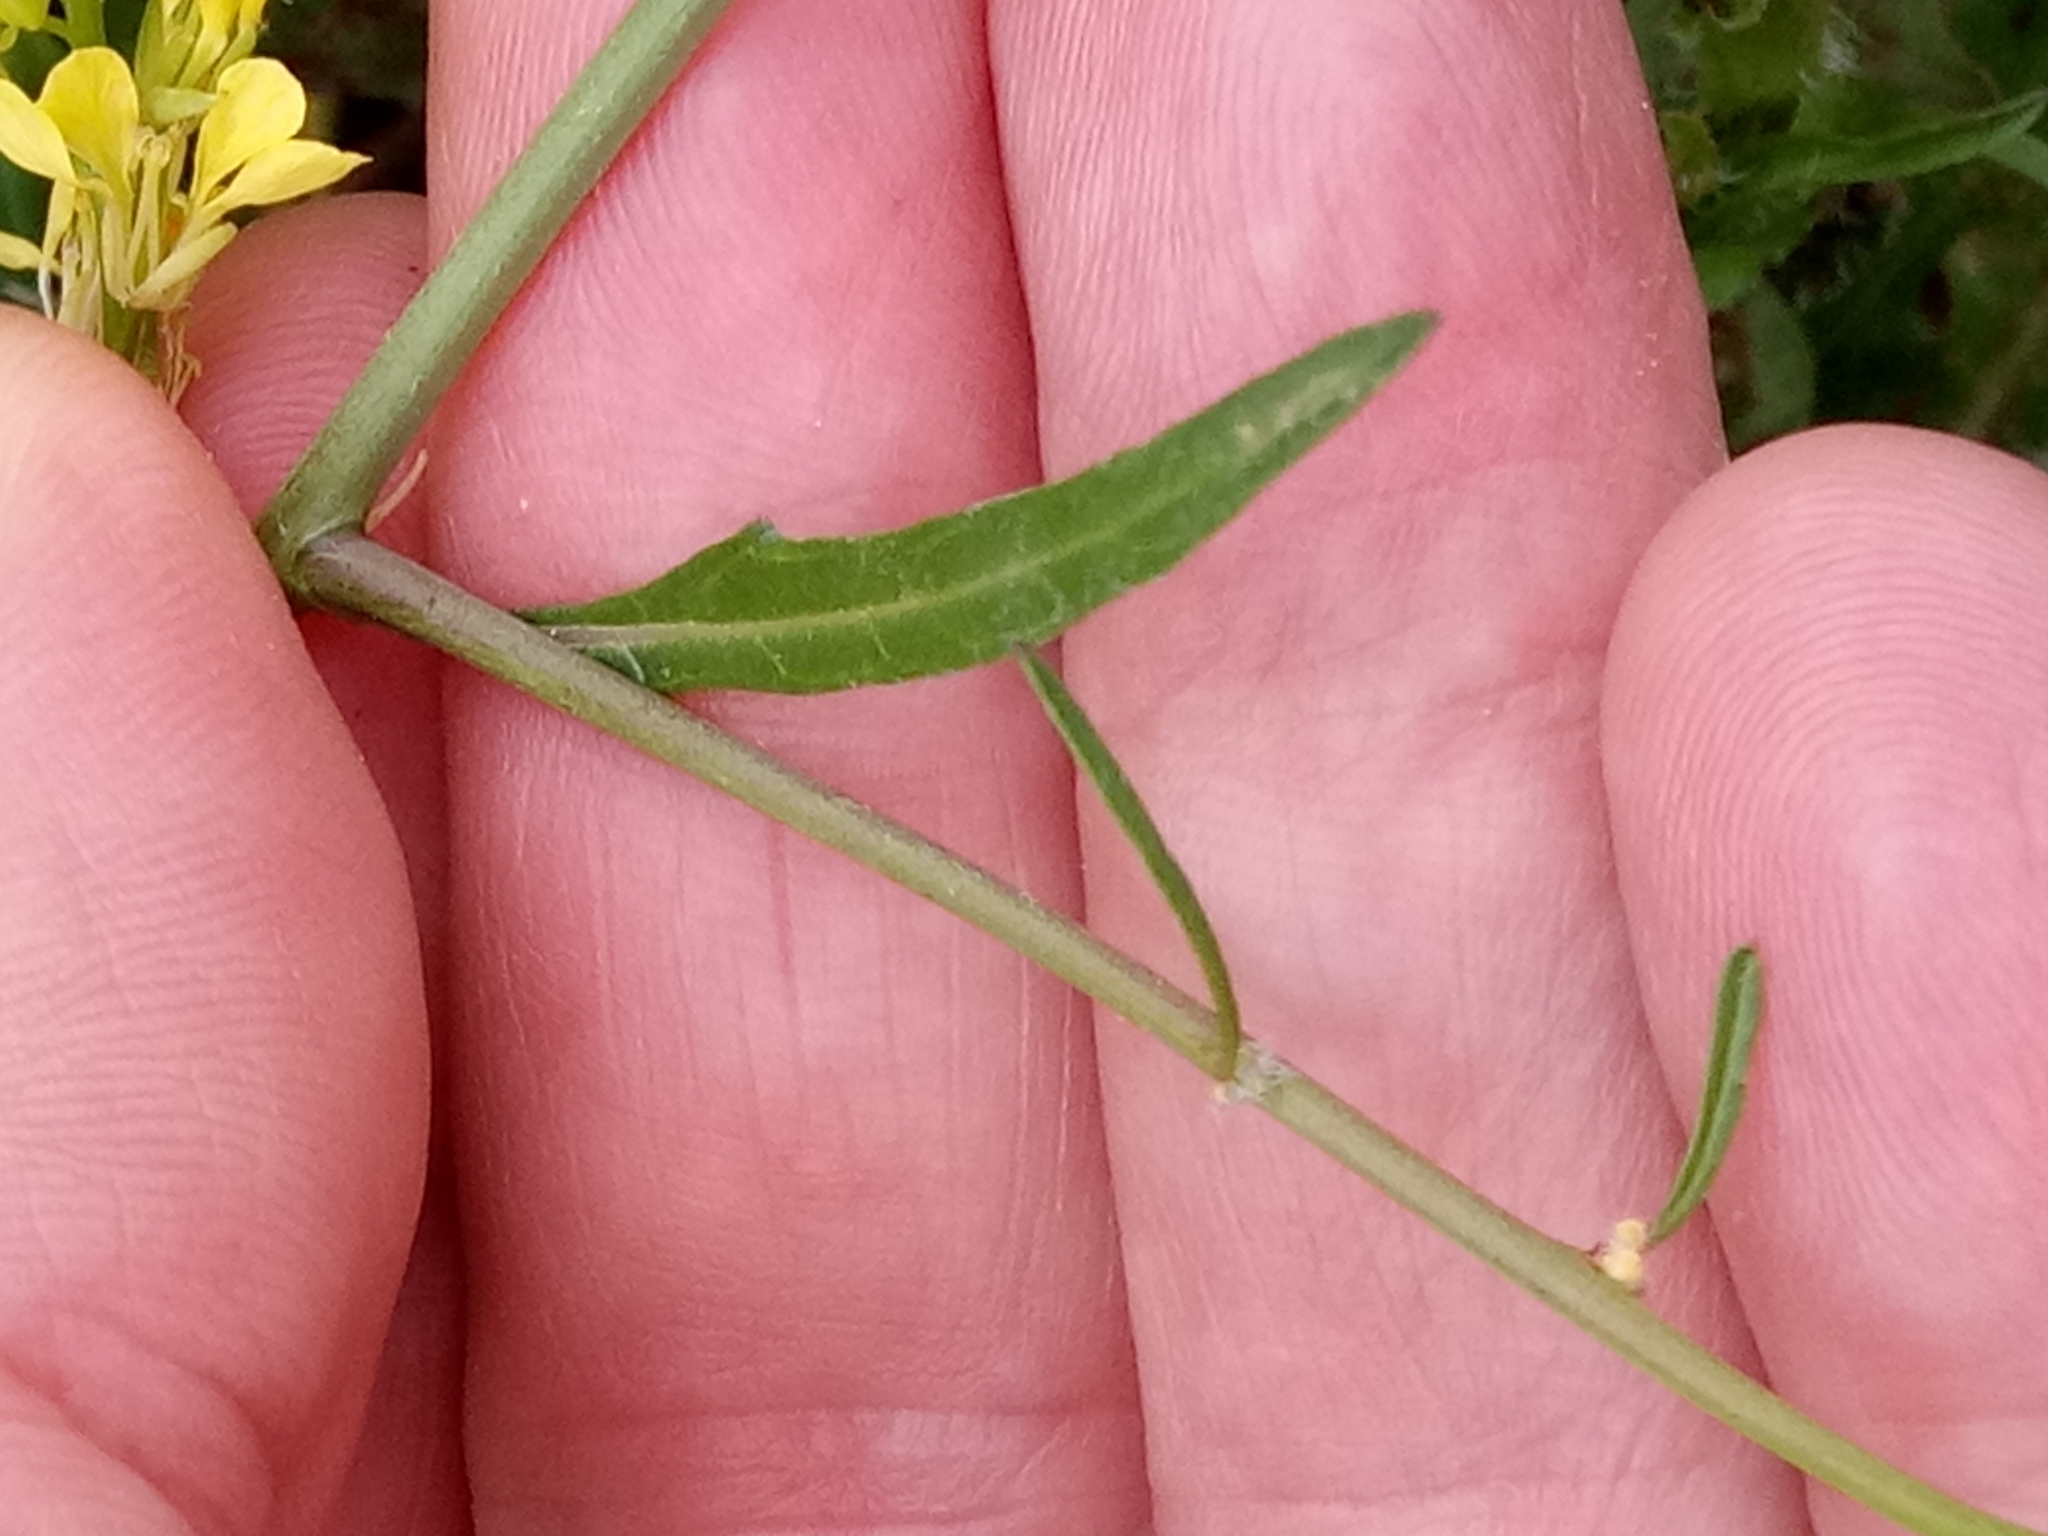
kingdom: Plantae
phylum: Tracheophyta
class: Magnoliopsida
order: Brassicales
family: Brassicaceae
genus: Sinapis
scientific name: Sinapis arvensis
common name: Charlock
